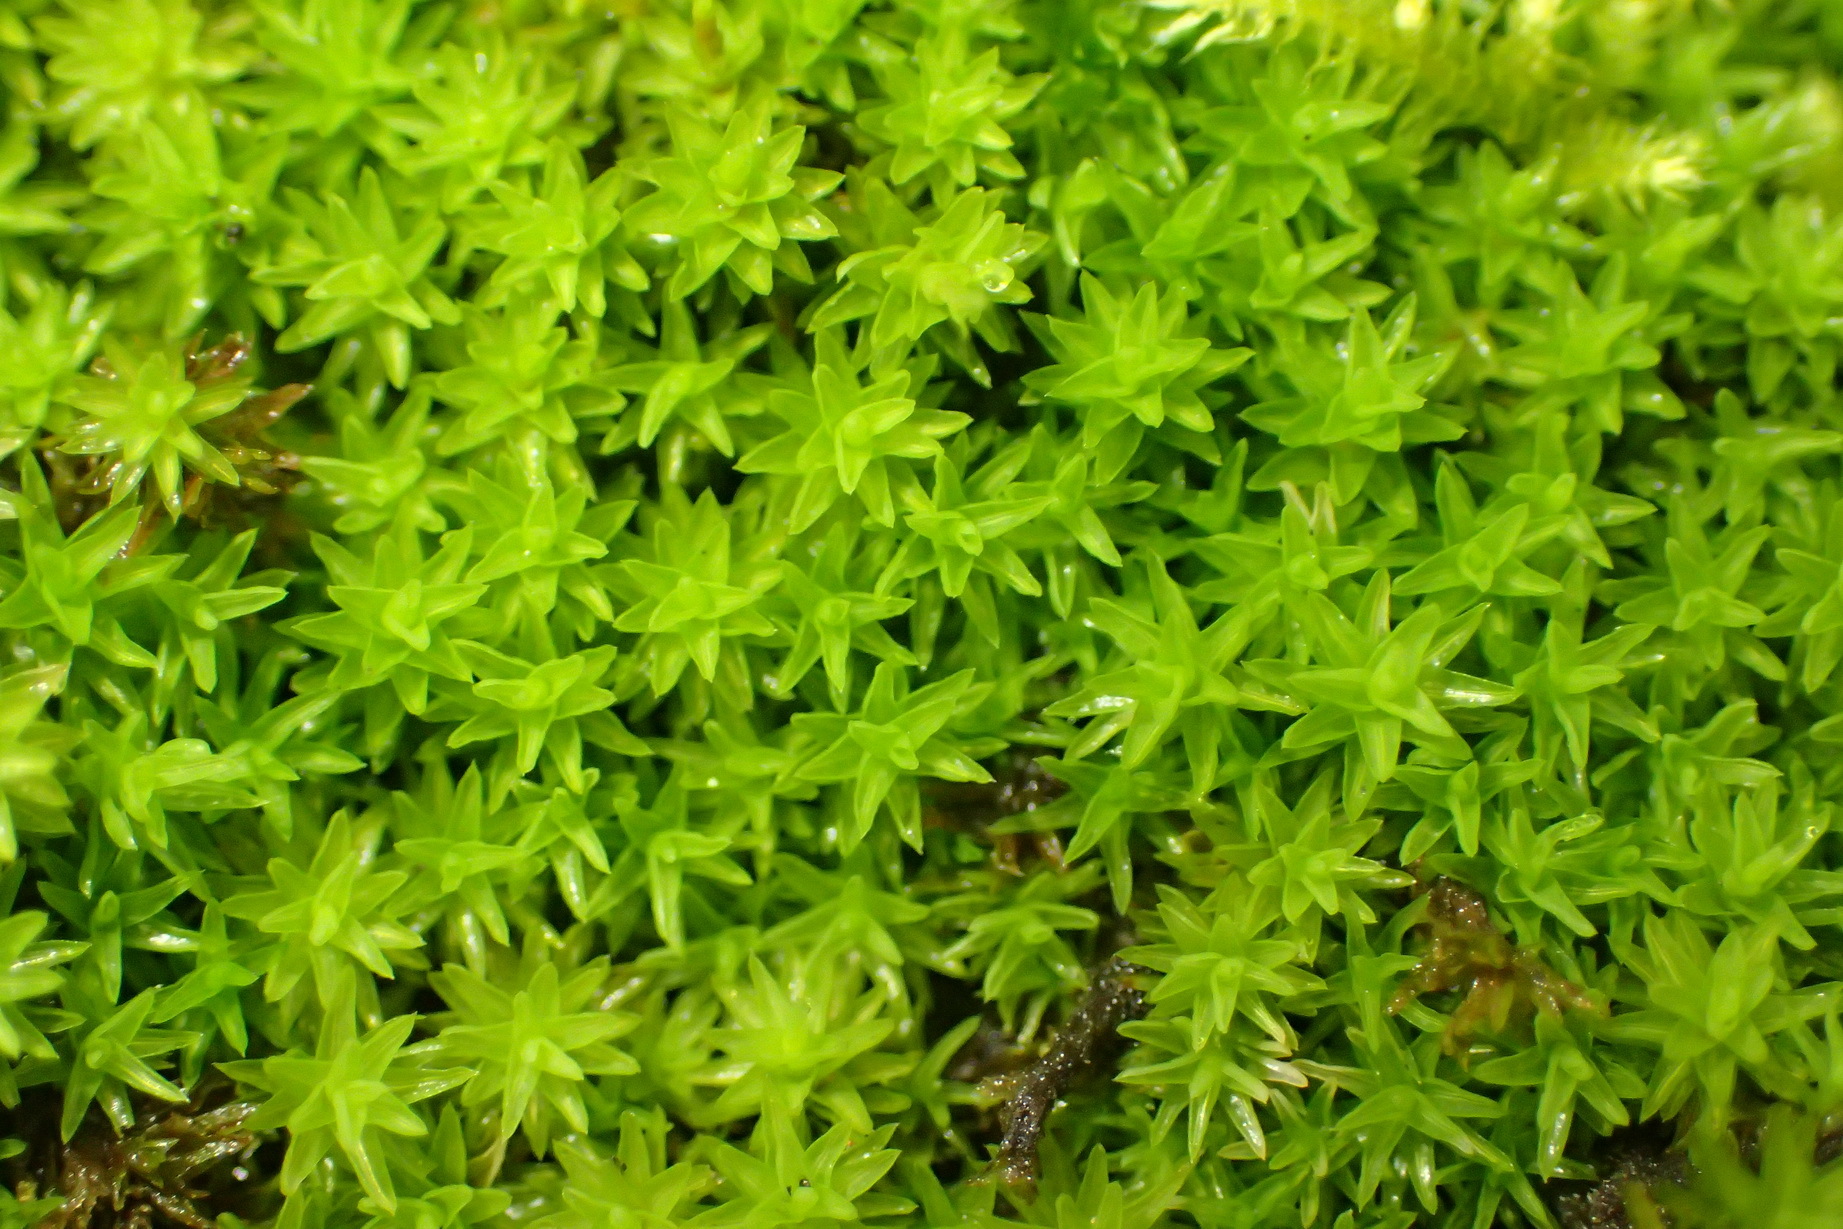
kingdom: Plantae
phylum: Bryophyta
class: Bryopsida
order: Dicranales
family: Dicranaceae
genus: Holomitrium
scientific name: Holomitrium cylindraceum
